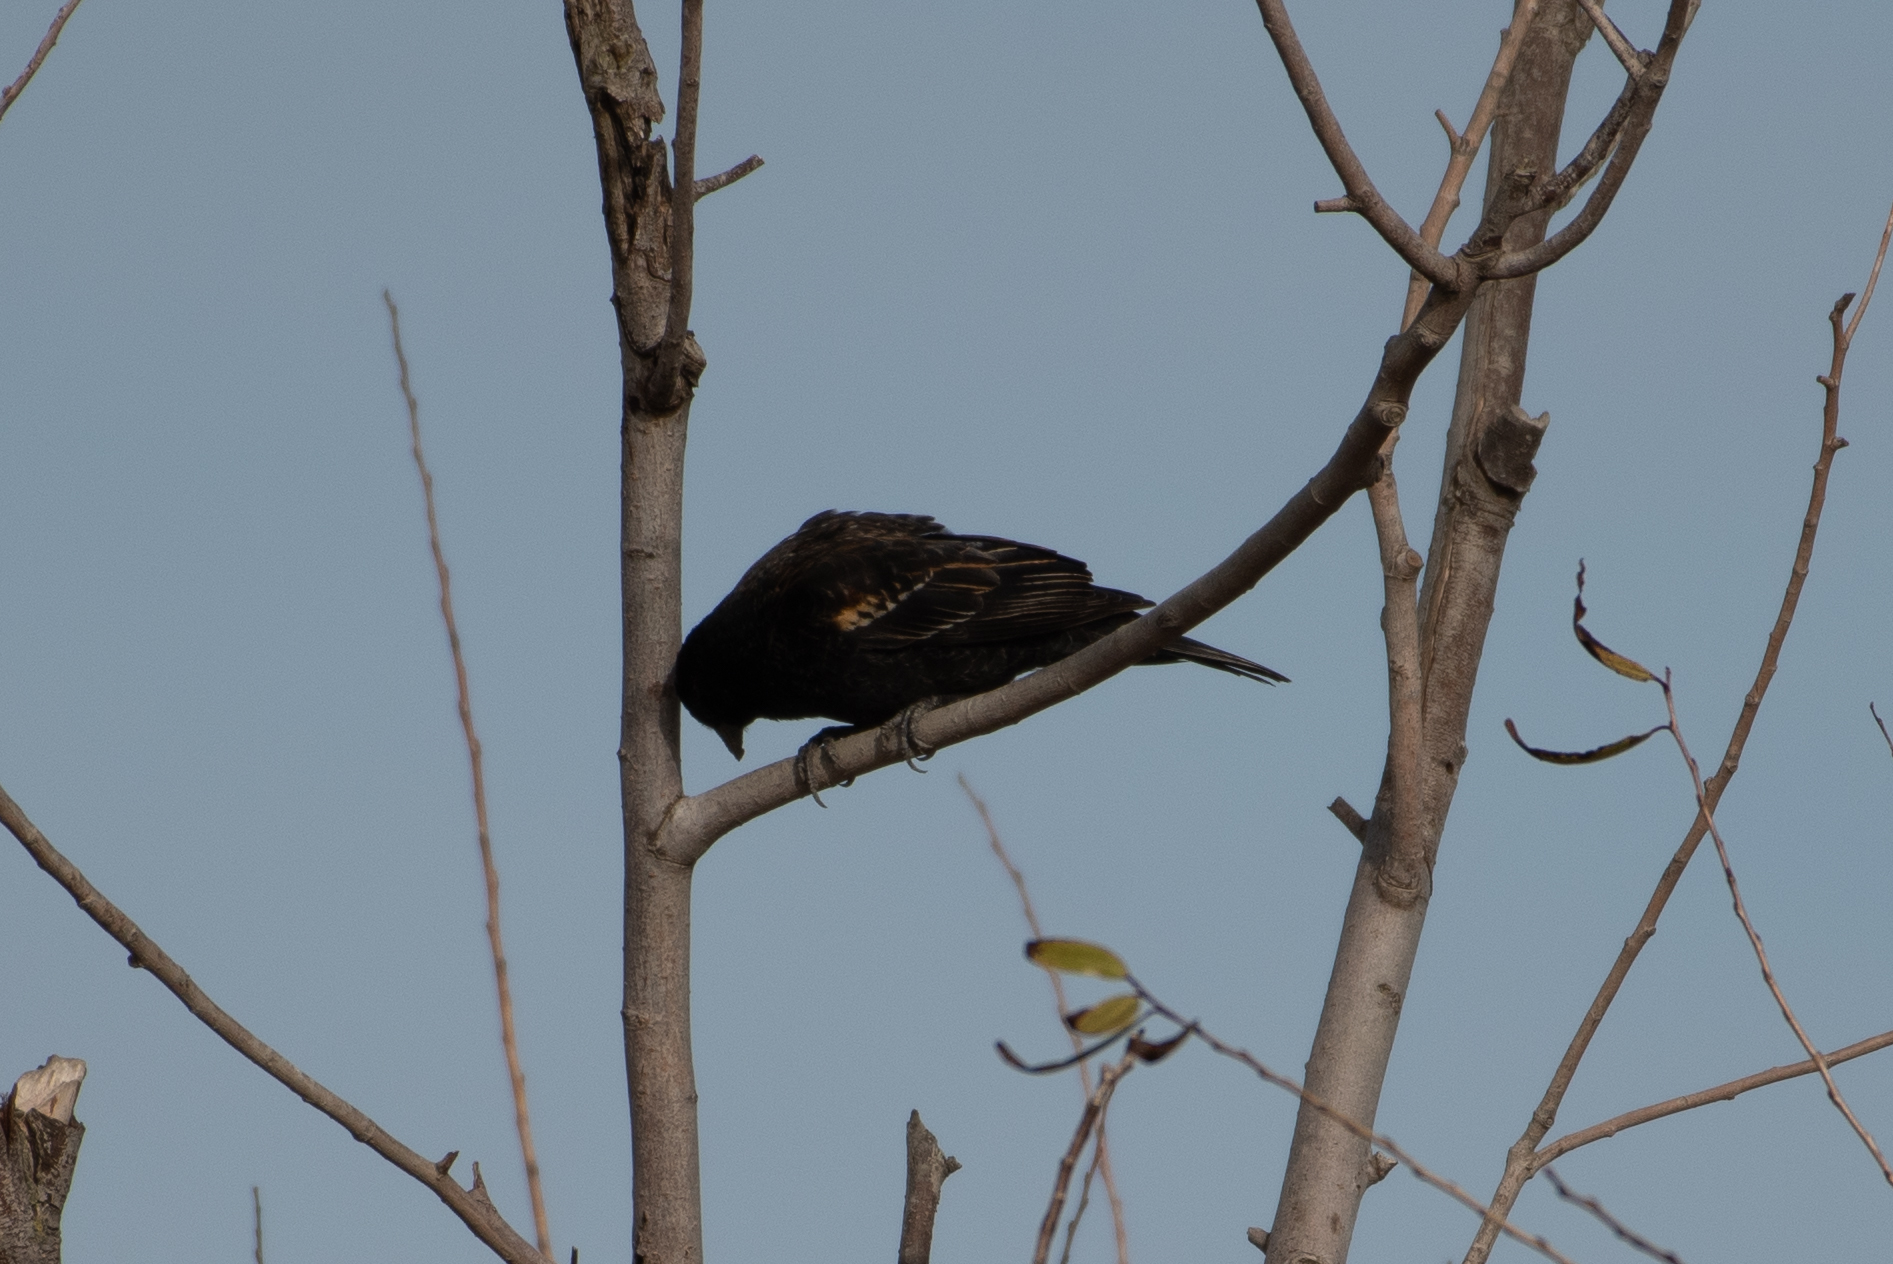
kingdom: Animalia
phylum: Chordata
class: Aves
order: Passeriformes
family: Icteridae
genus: Agelaius
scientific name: Agelaius phoeniceus
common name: Red-winged blackbird
